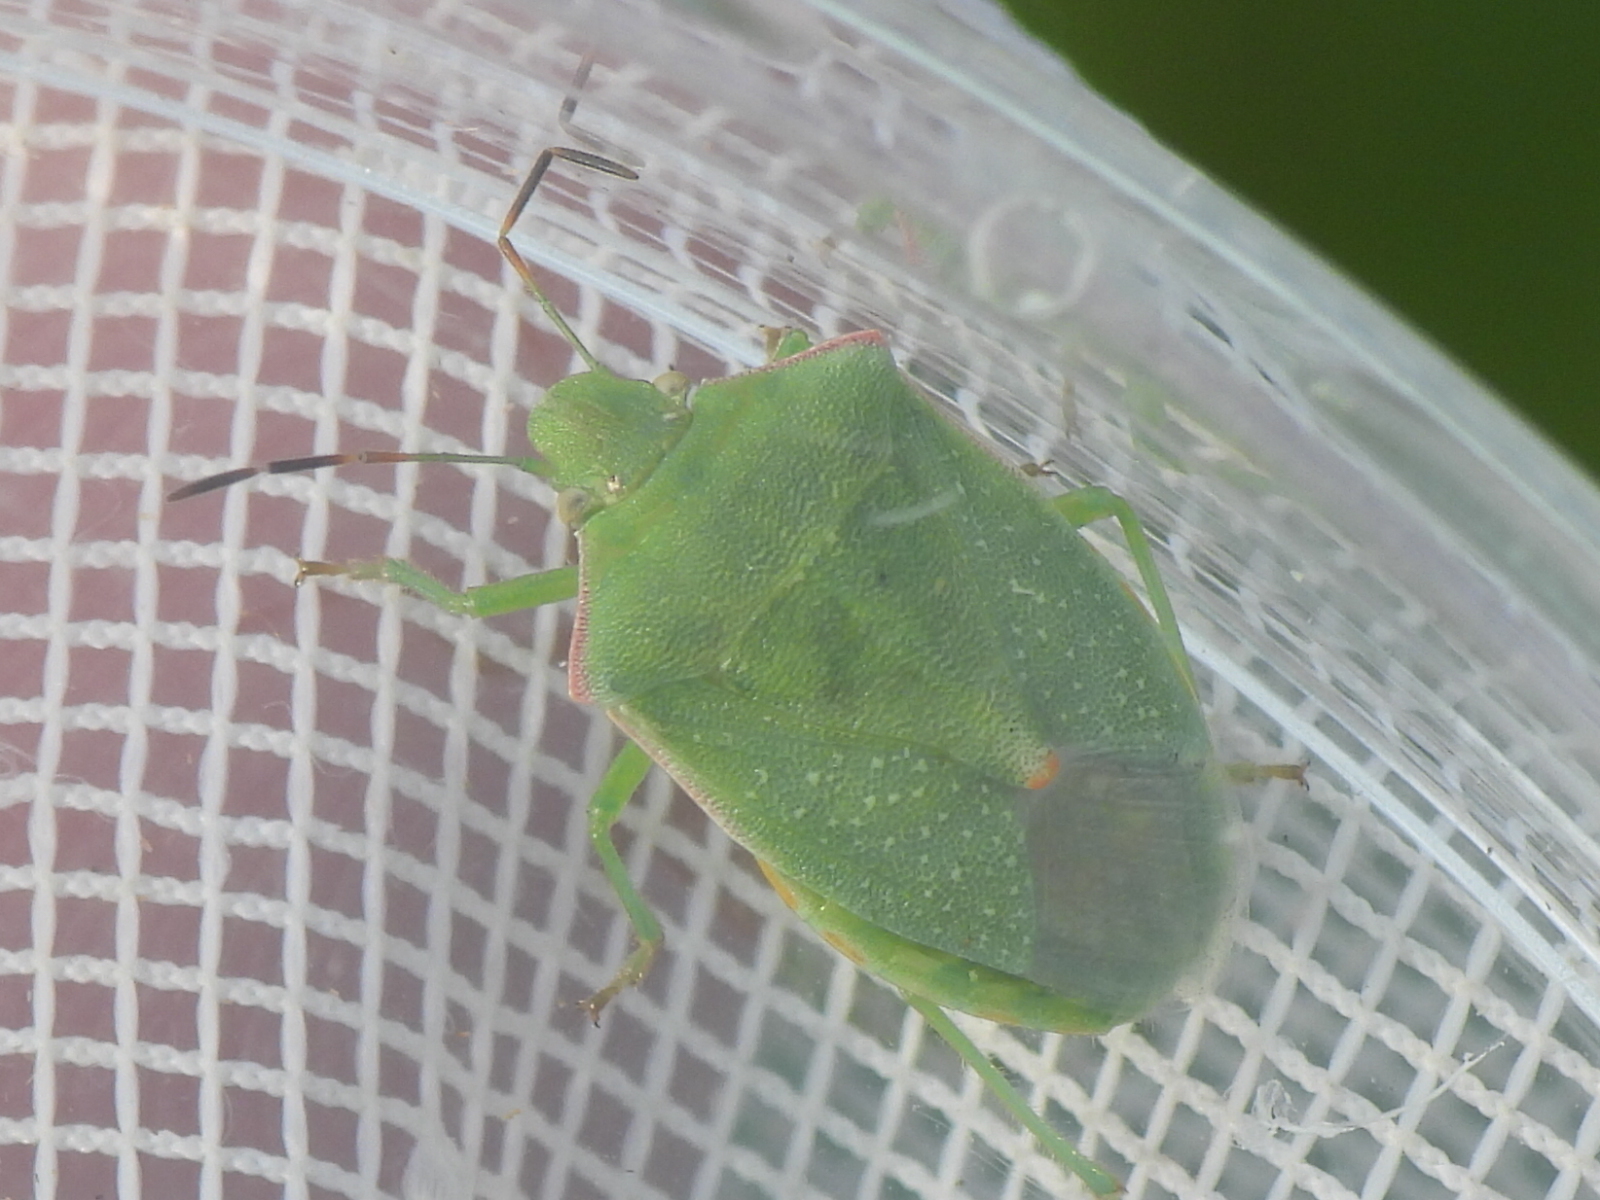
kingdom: Animalia
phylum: Arthropoda
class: Insecta
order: Hemiptera
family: Pentatomidae
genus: Thyanta
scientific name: Thyanta accerra
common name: Stink bug
